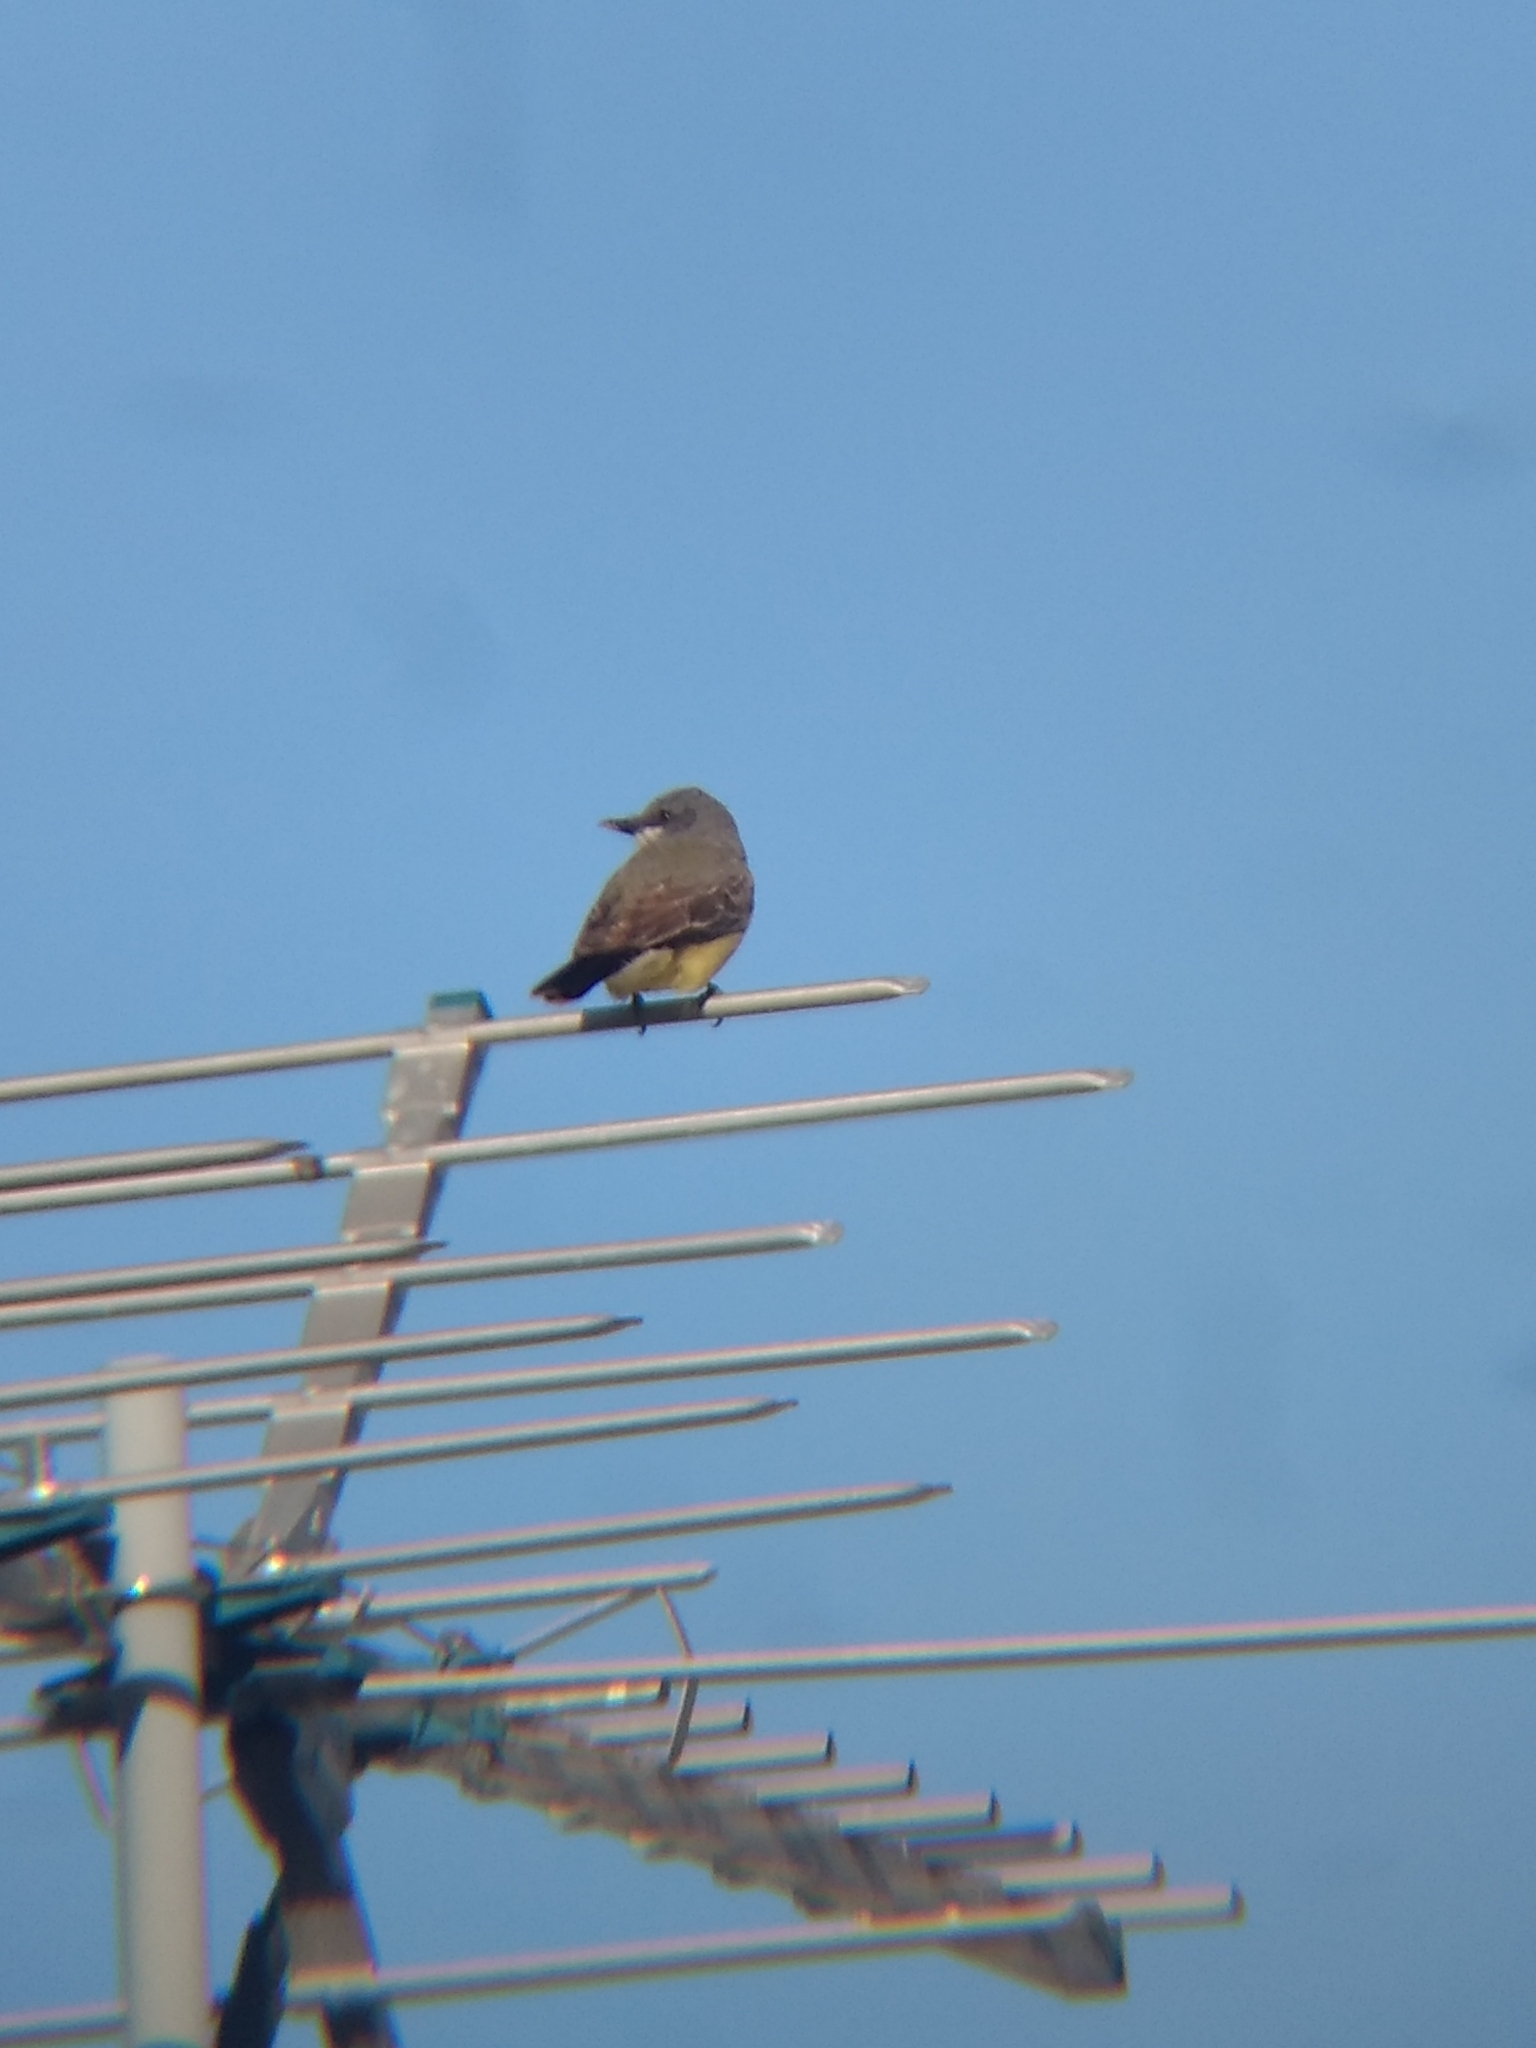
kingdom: Animalia
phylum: Chordata
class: Aves
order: Passeriformes
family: Tyrannidae
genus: Tyrannus
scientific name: Tyrannus vociferans
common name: Cassin's kingbird
